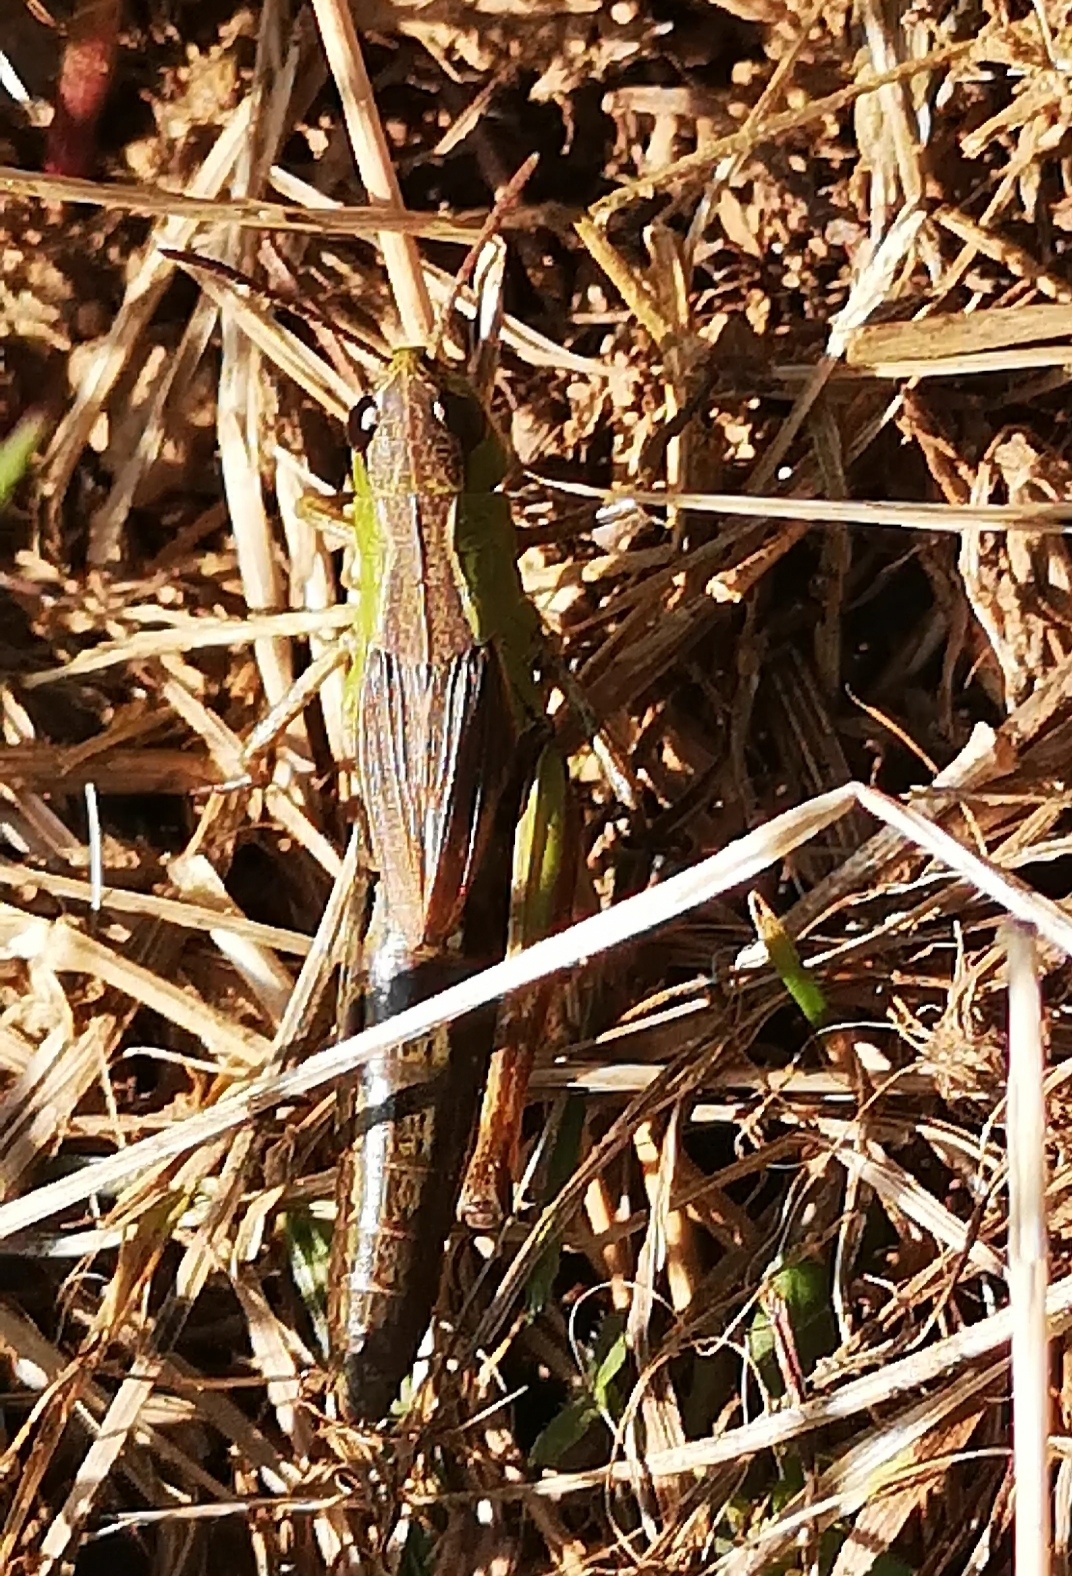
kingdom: Animalia
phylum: Arthropoda
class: Insecta
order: Orthoptera
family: Acrididae
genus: Pseudochorthippus
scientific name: Pseudochorthippus parallelus
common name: Meadow grasshopper
